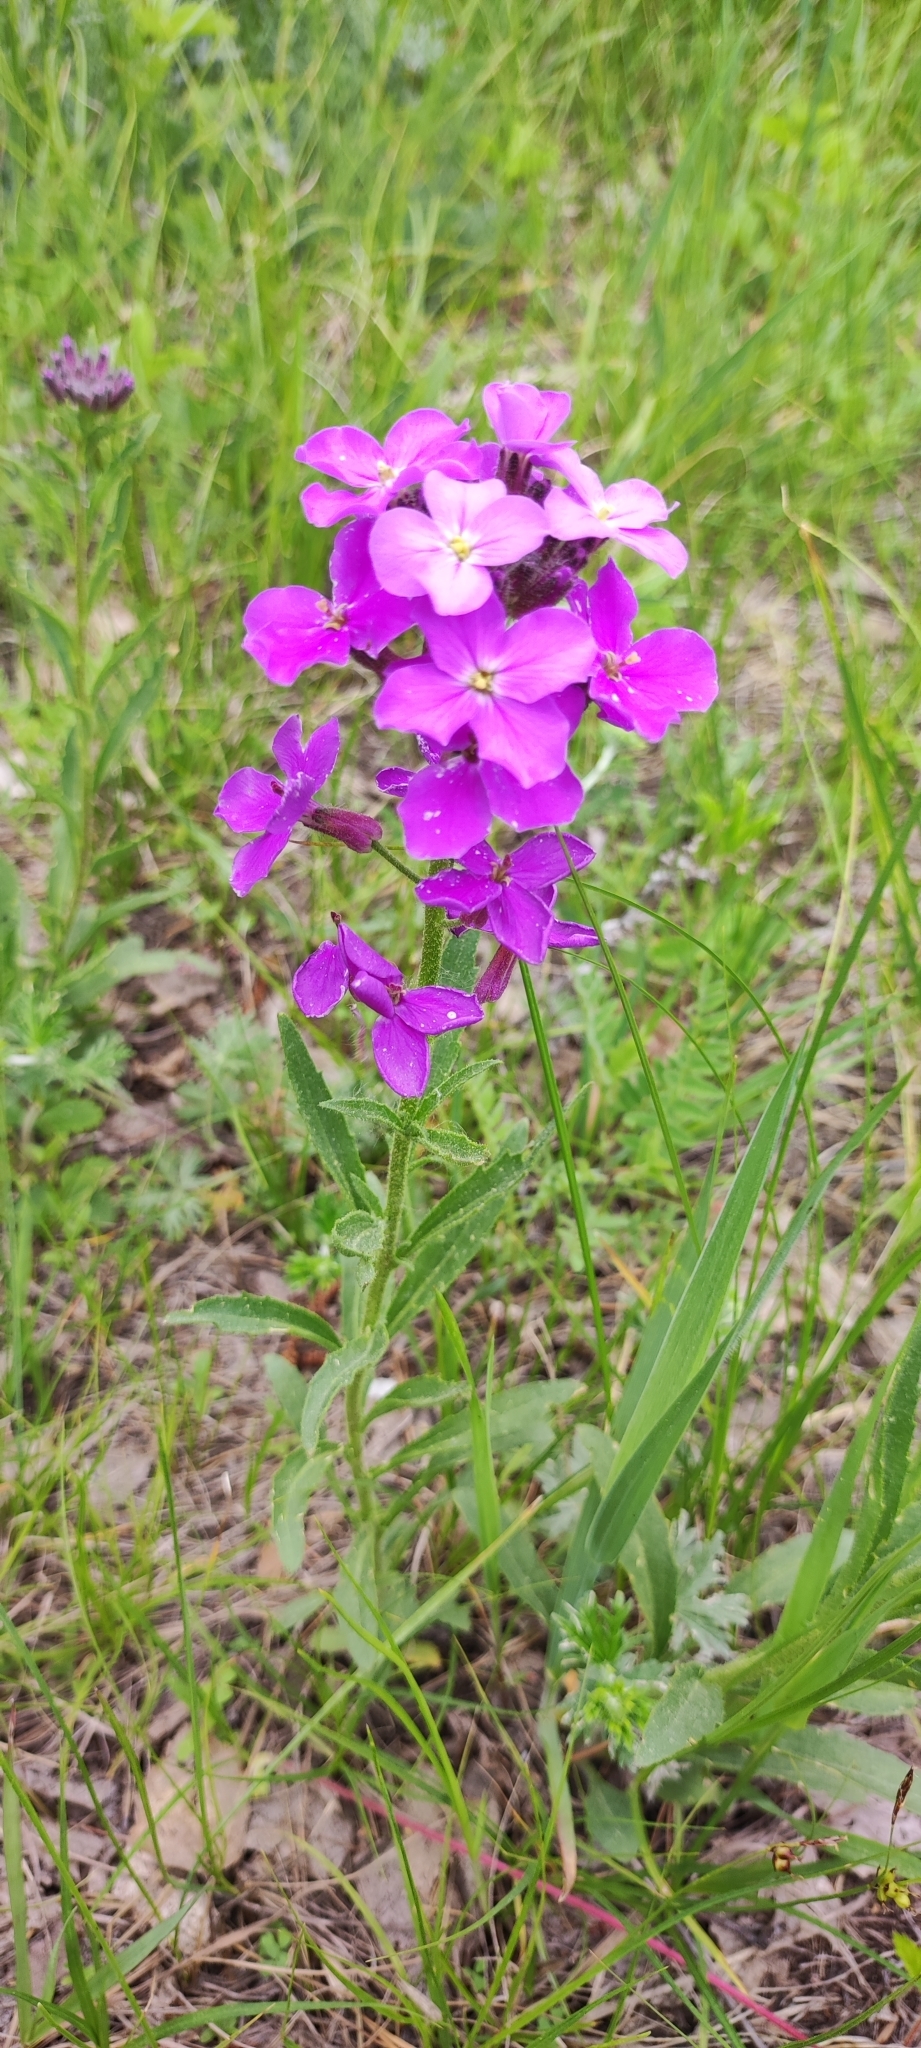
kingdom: Plantae
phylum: Tracheophyta
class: Magnoliopsida
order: Brassicales
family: Brassicaceae
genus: Clausia
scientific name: Clausia aprica
